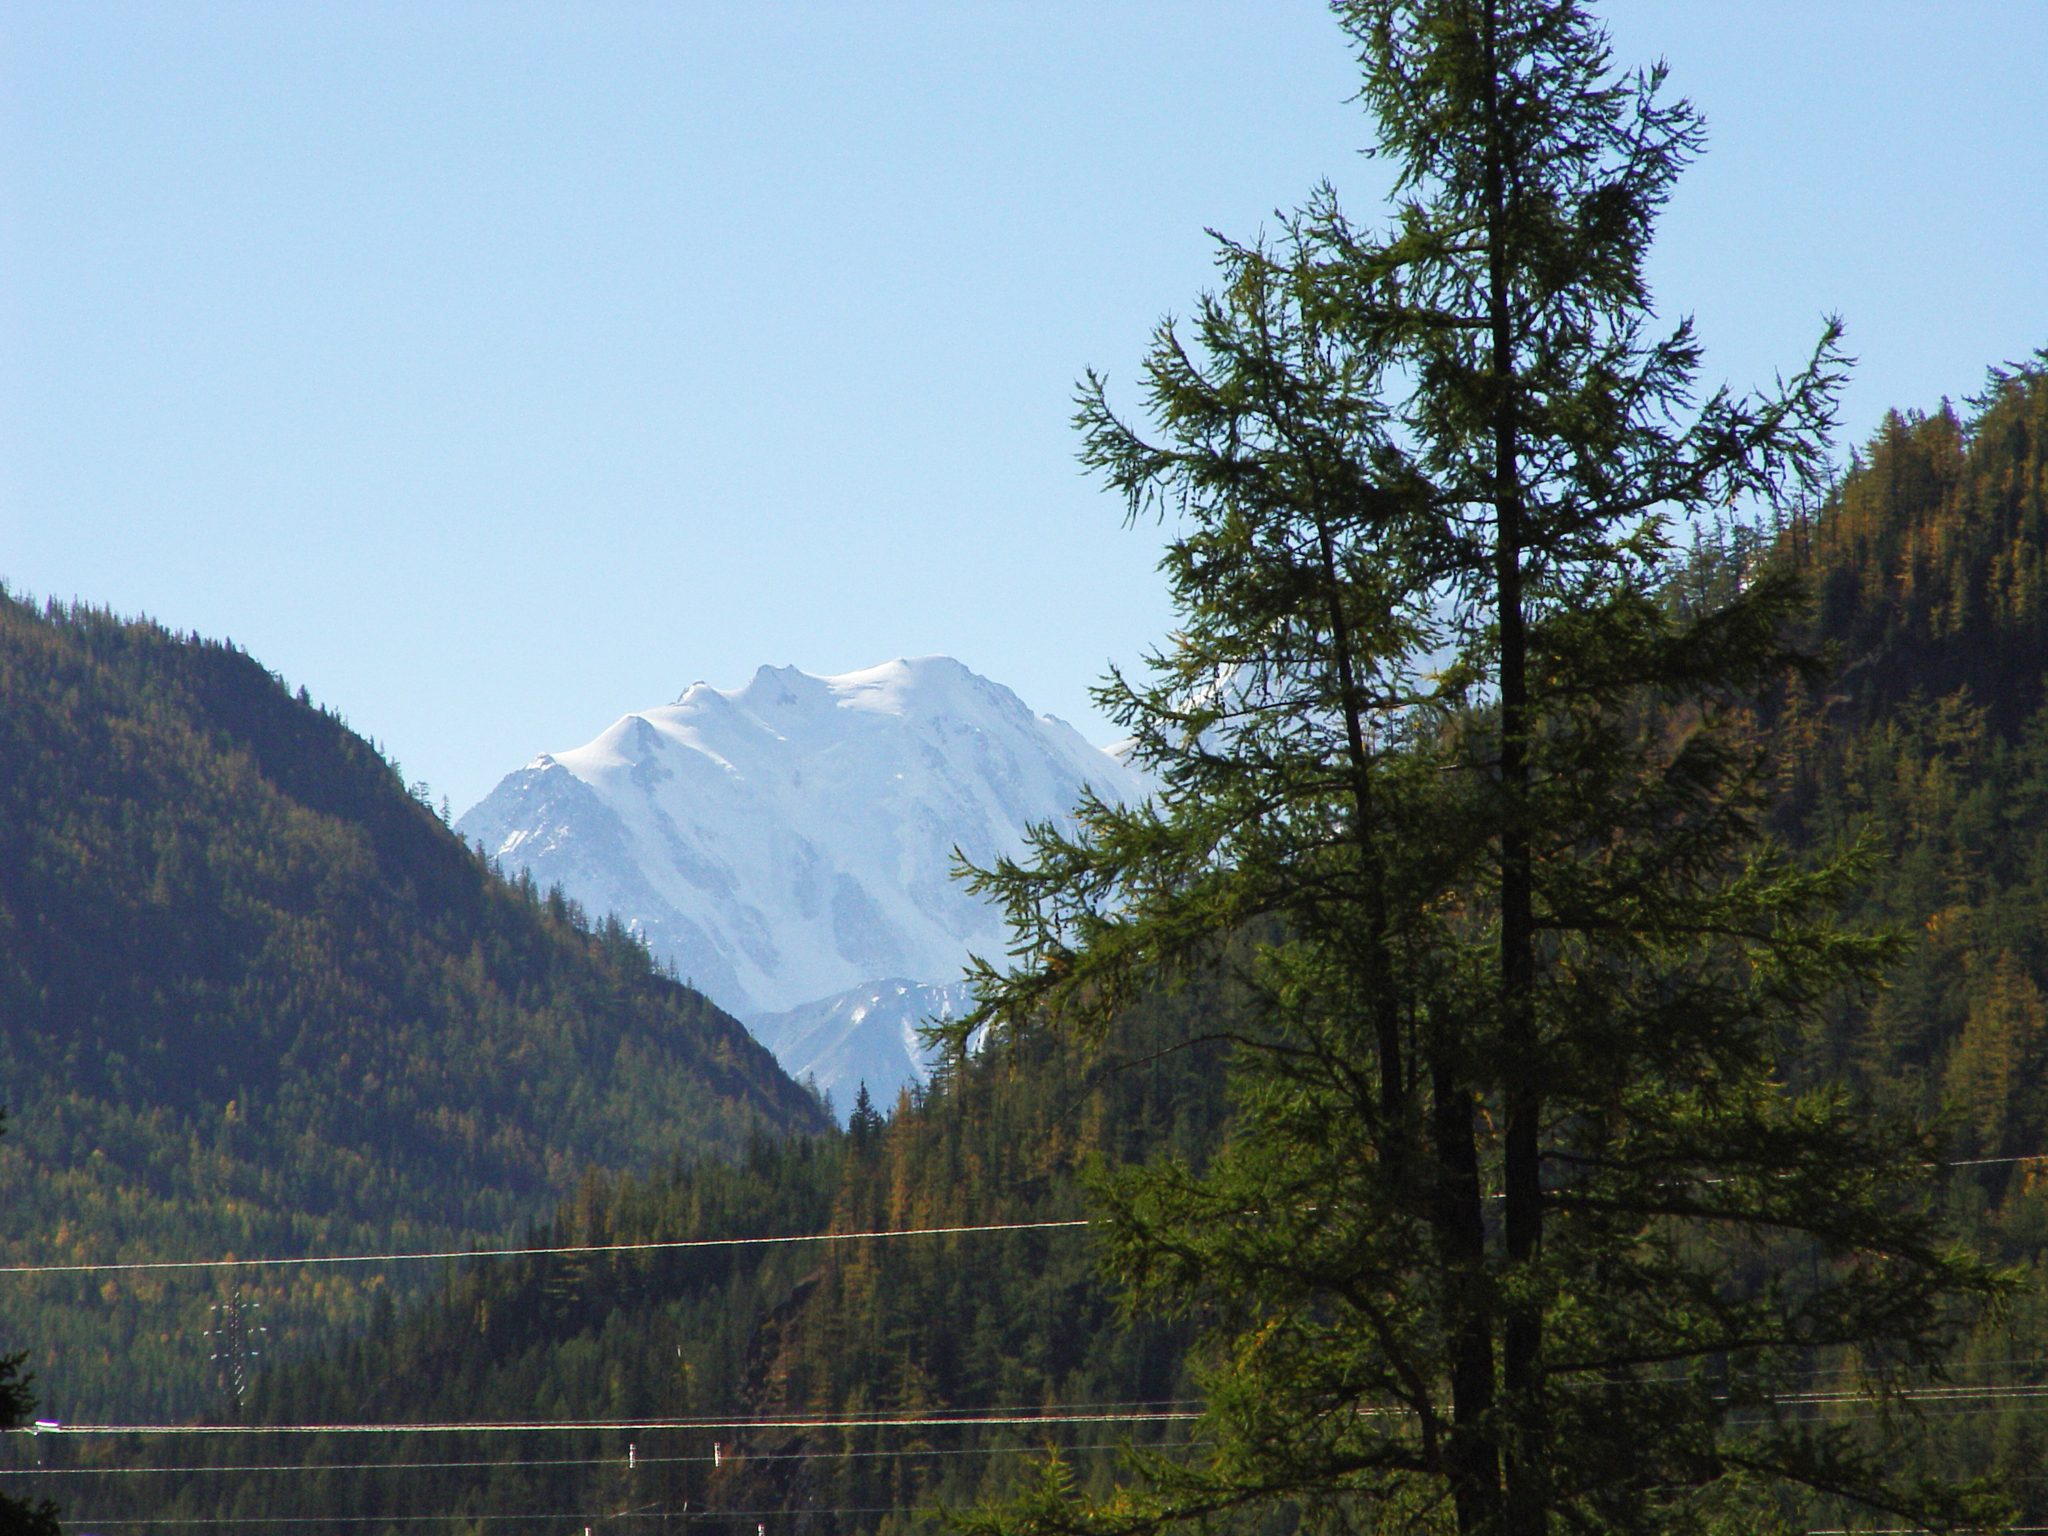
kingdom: Plantae
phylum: Tracheophyta
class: Pinopsida
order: Pinales
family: Pinaceae
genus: Larix
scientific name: Larix sibirica
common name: Siberian larch
